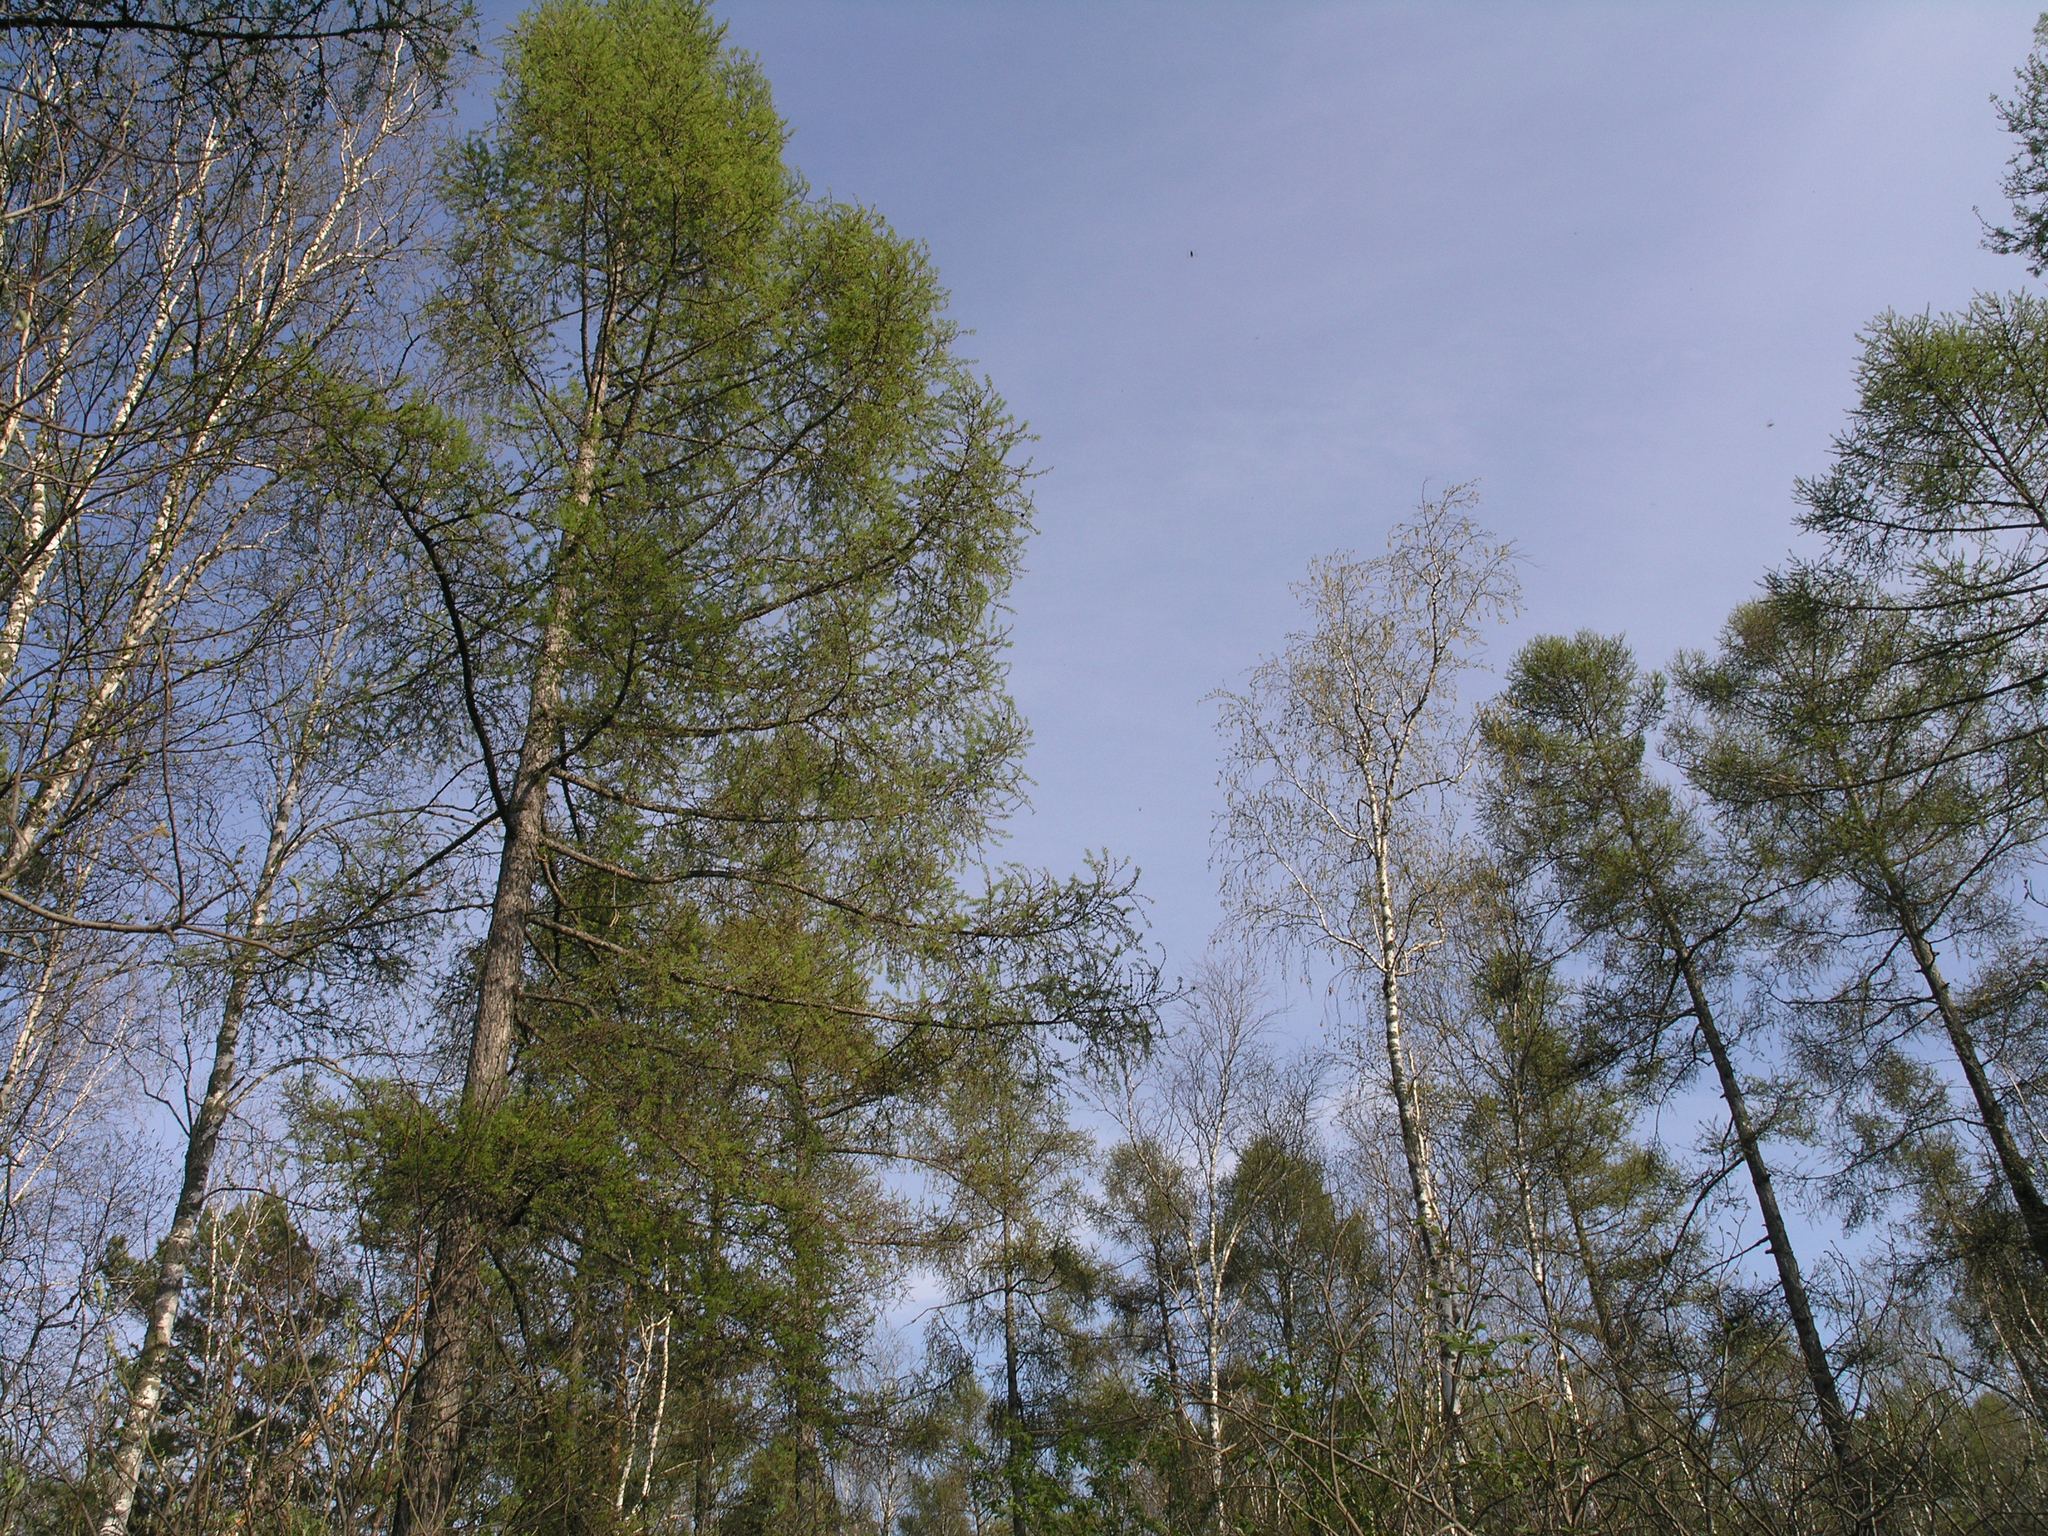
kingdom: Plantae
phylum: Tracheophyta
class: Pinopsida
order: Pinales
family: Pinaceae
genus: Larix
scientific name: Larix sibirica
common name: Siberian larch
